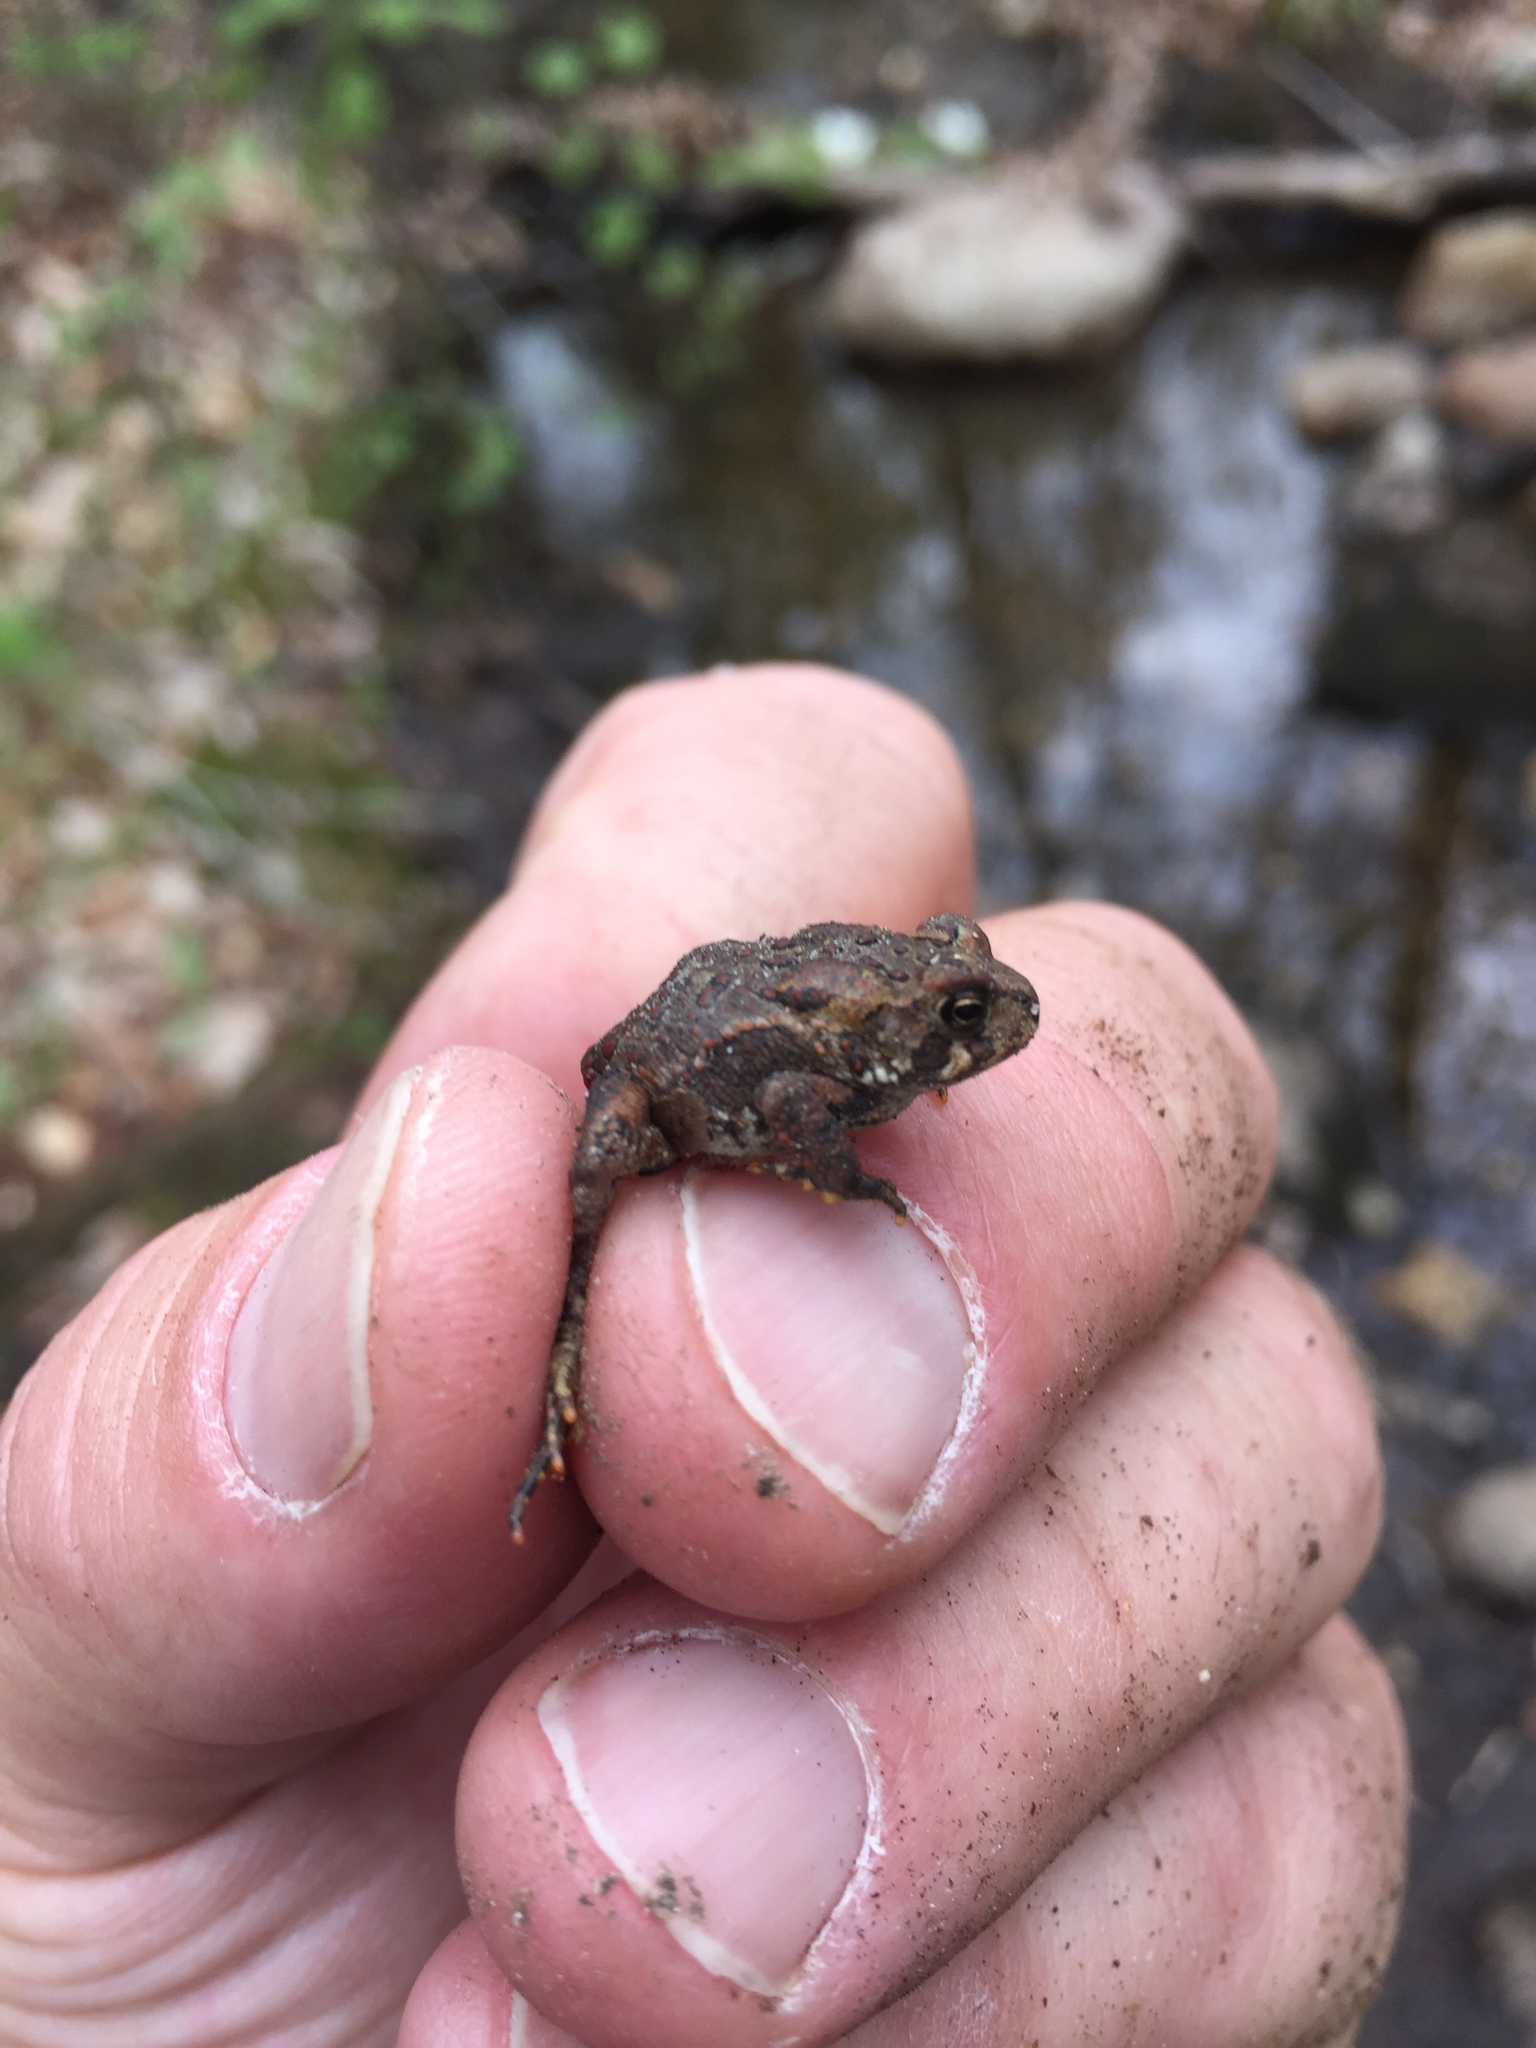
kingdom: Animalia
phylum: Chordata
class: Amphibia
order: Anura
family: Bufonidae
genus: Anaxyrus
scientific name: Anaxyrus americanus
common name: American toad
